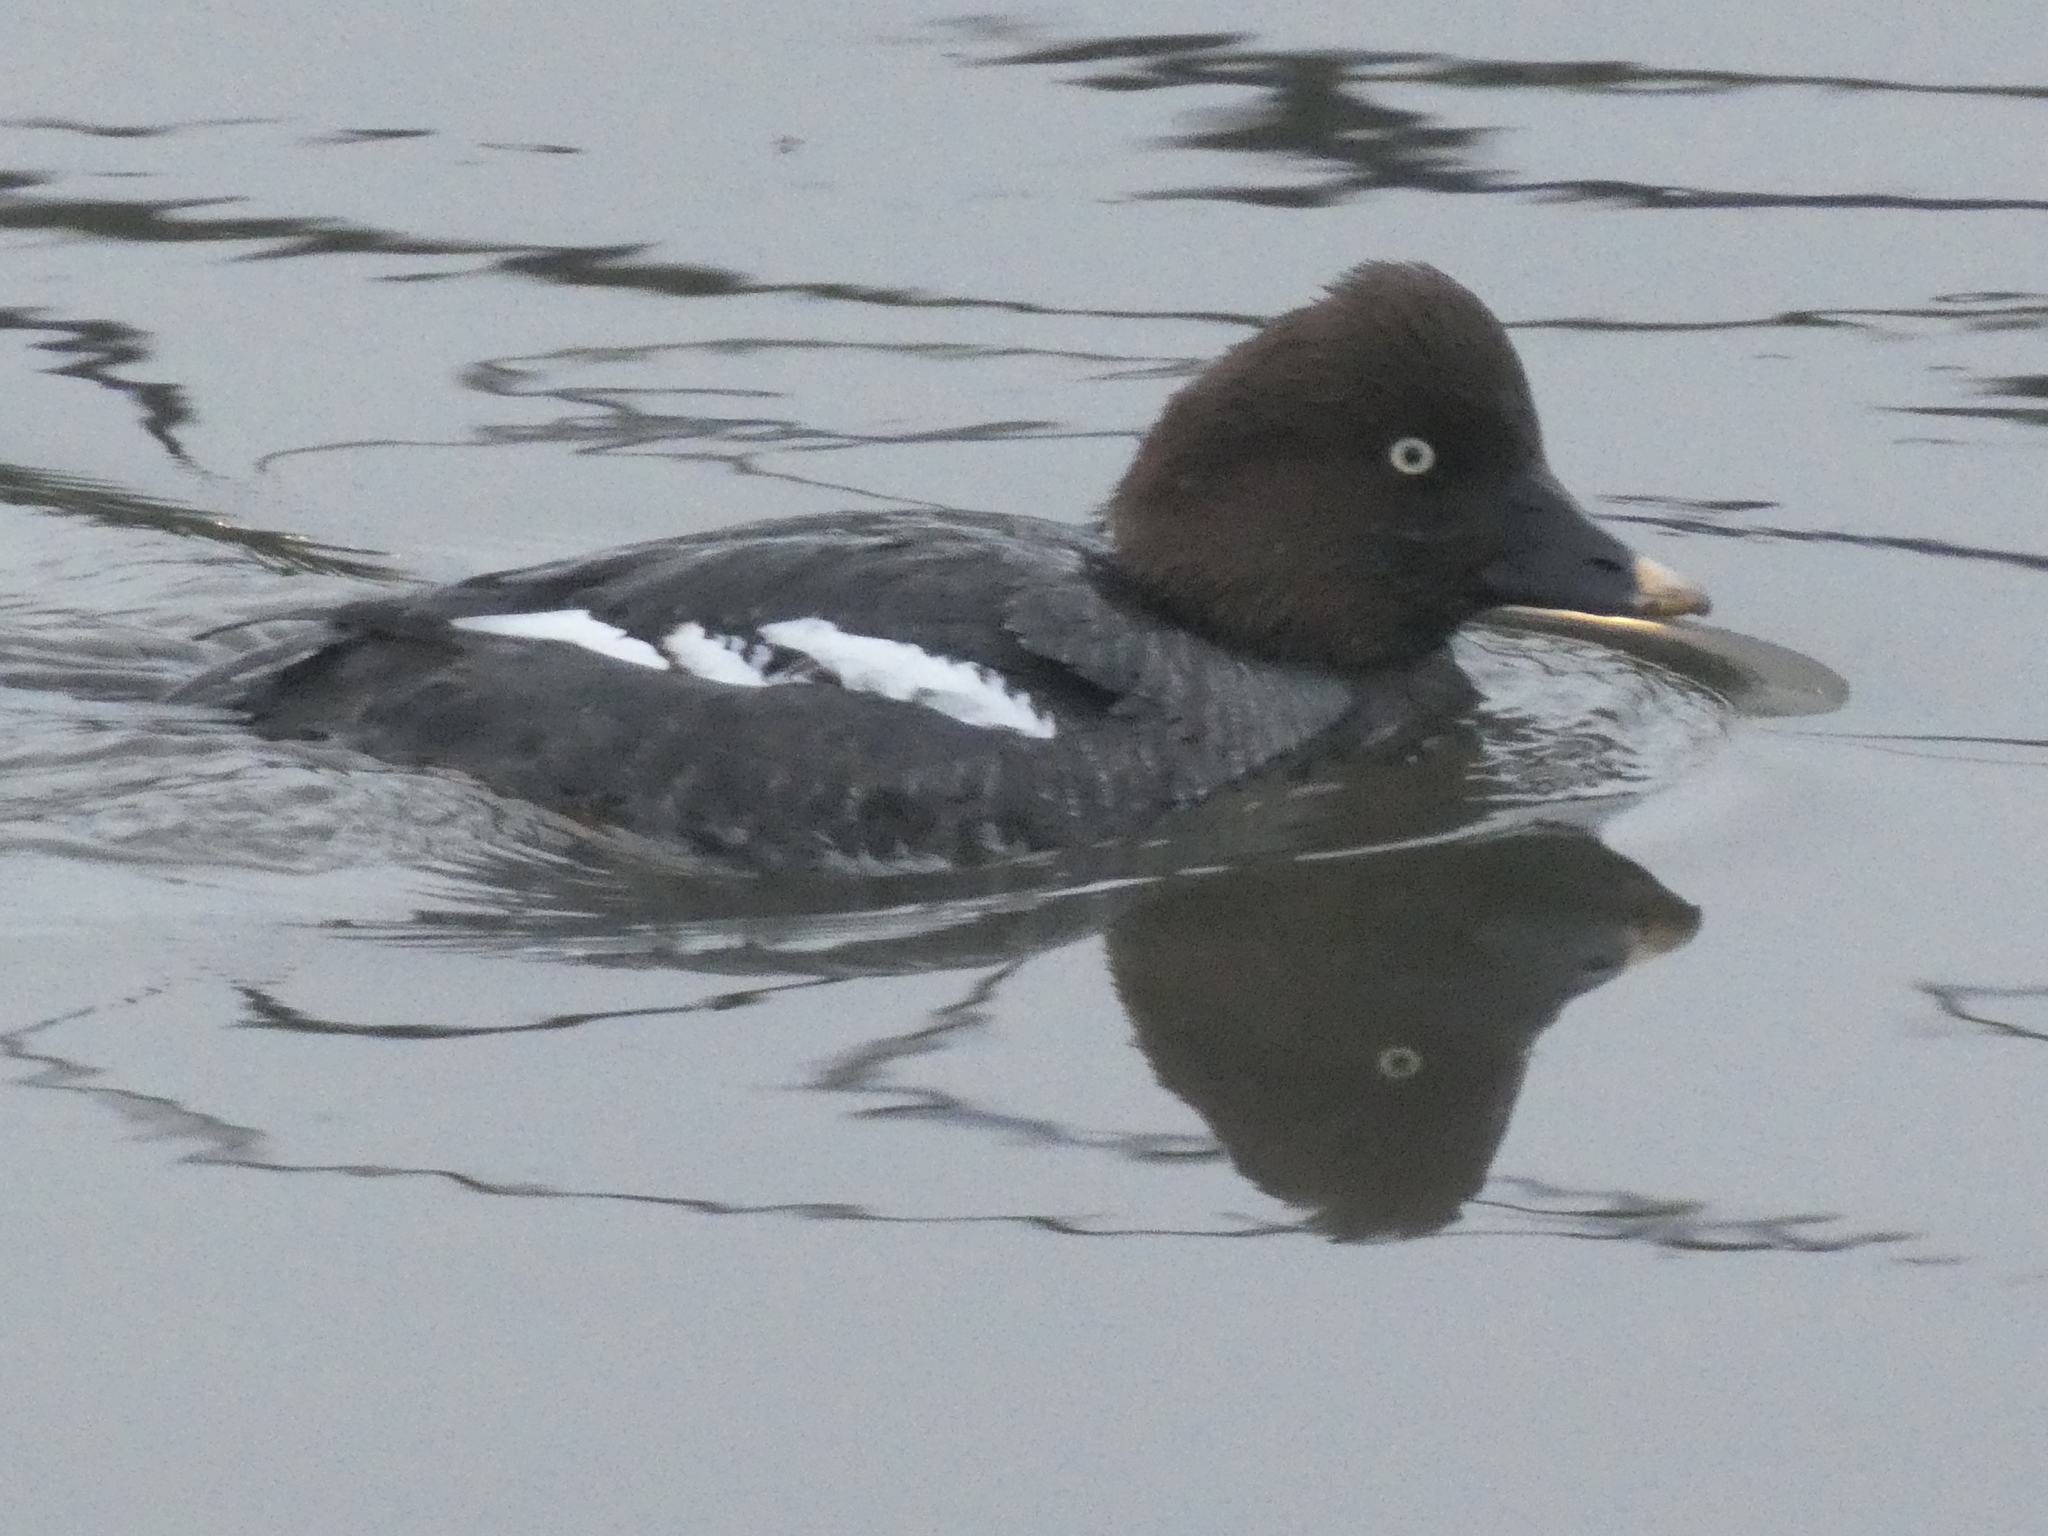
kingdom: Animalia
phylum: Chordata
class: Aves
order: Anseriformes
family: Anatidae
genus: Bucephala
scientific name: Bucephala clangula
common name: Common goldeneye
